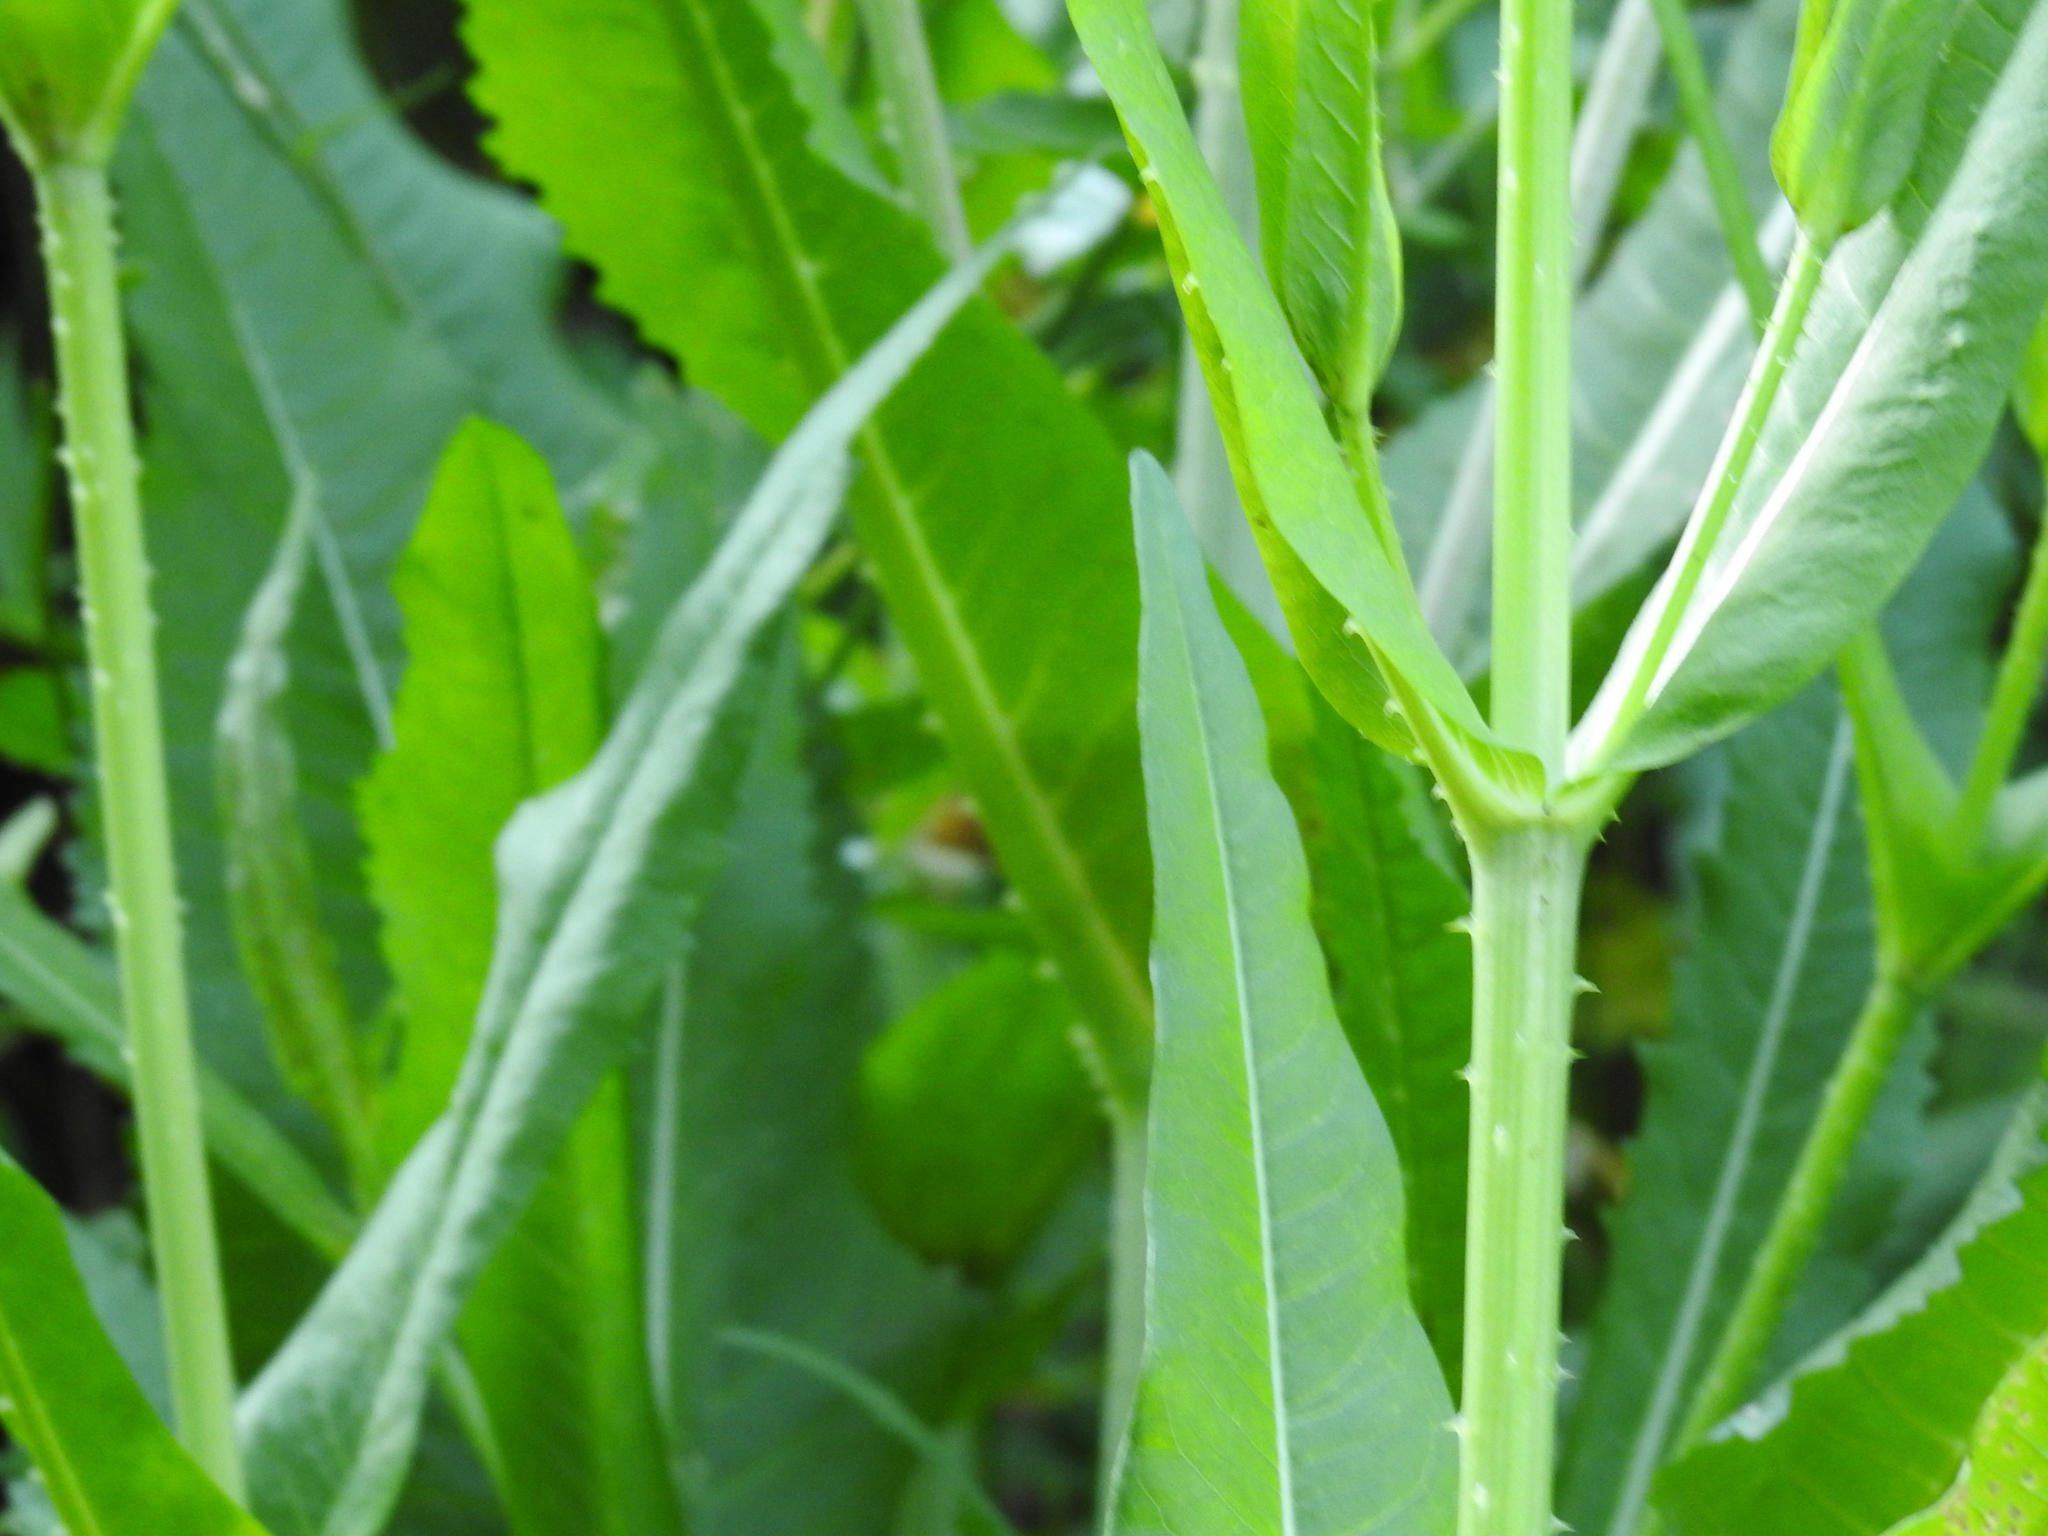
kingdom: Plantae
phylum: Tracheophyta
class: Magnoliopsida
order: Dipsacales
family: Caprifoliaceae
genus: Dipsacus
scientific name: Dipsacus fullonum
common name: Teasel
